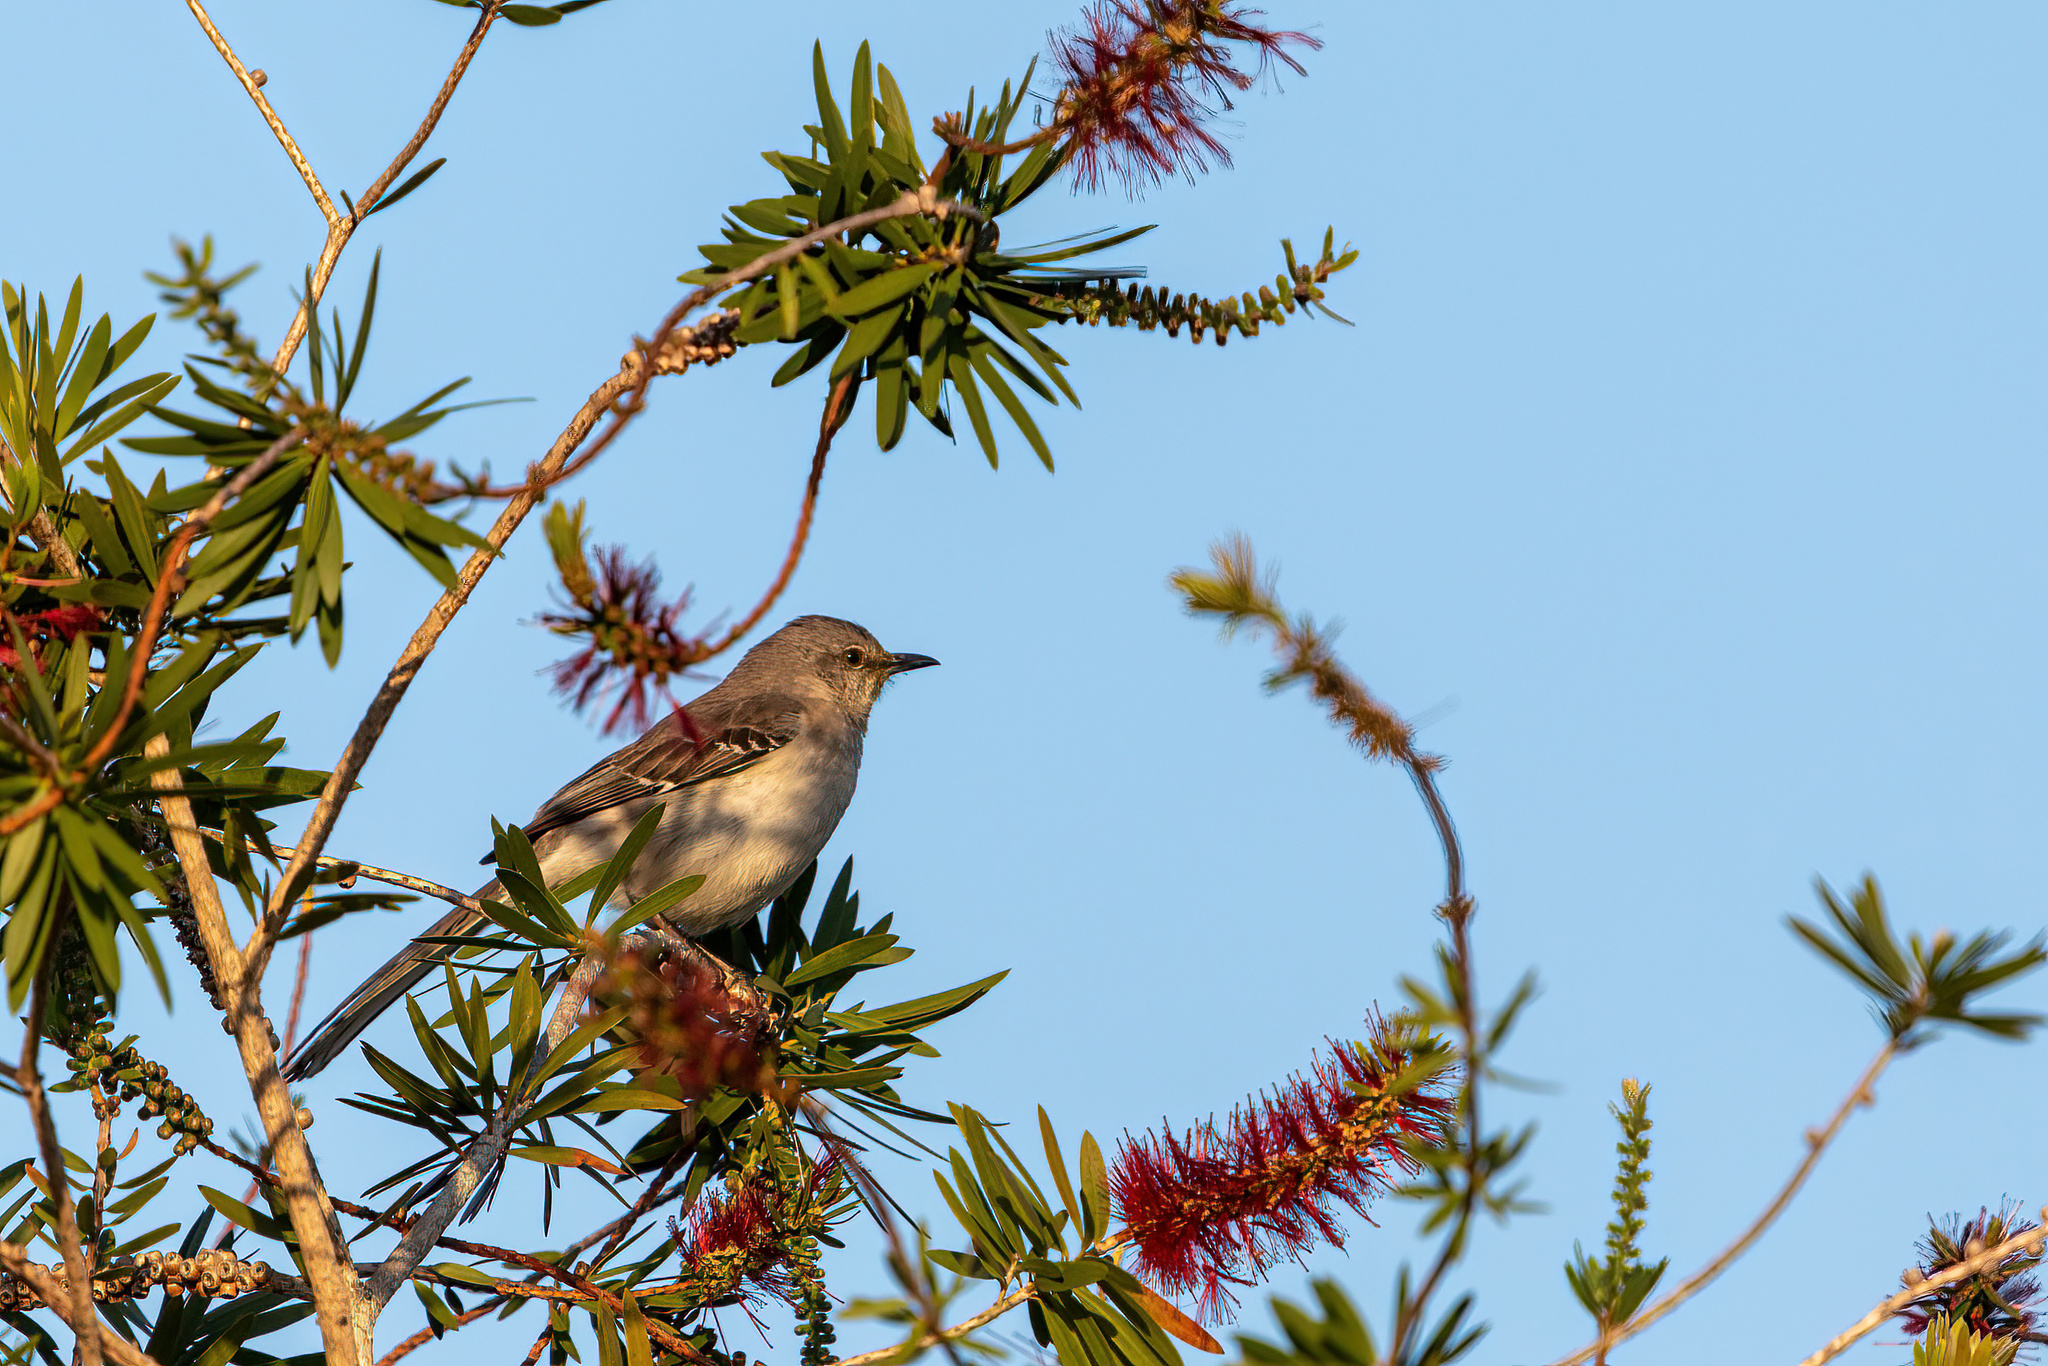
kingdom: Animalia
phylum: Chordata
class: Aves
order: Passeriformes
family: Mimidae
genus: Mimus
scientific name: Mimus polyglottos
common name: Northern mockingbird
